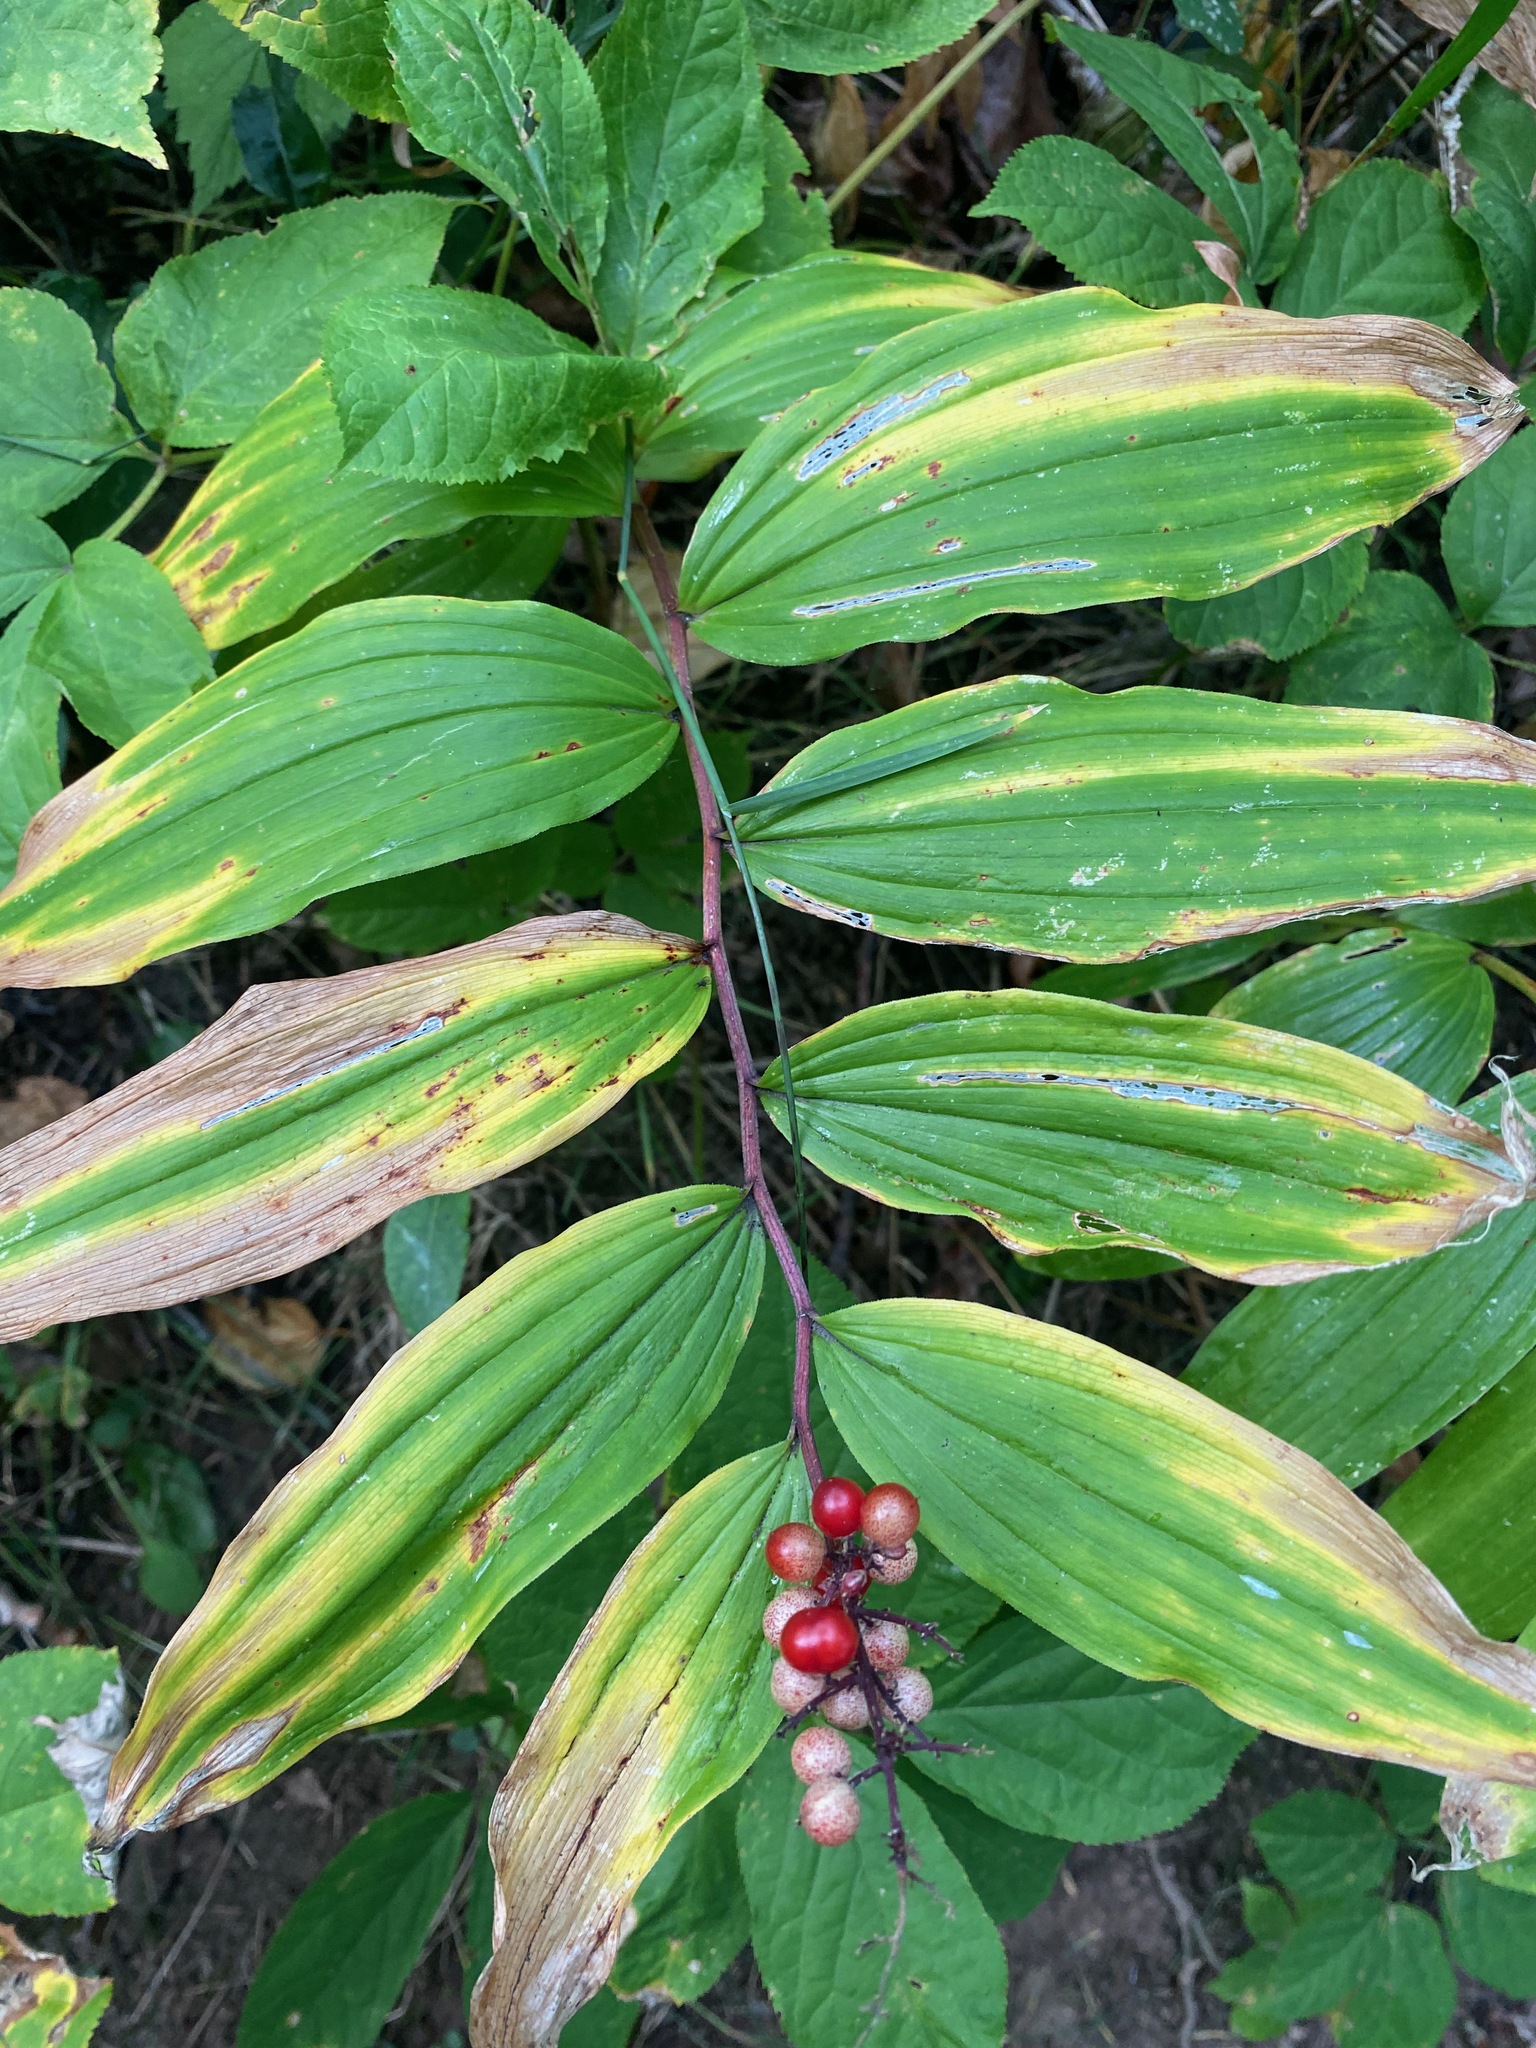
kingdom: Plantae
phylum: Tracheophyta
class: Liliopsida
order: Asparagales
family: Asparagaceae
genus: Maianthemum
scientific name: Maianthemum racemosum
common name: False spikenard
